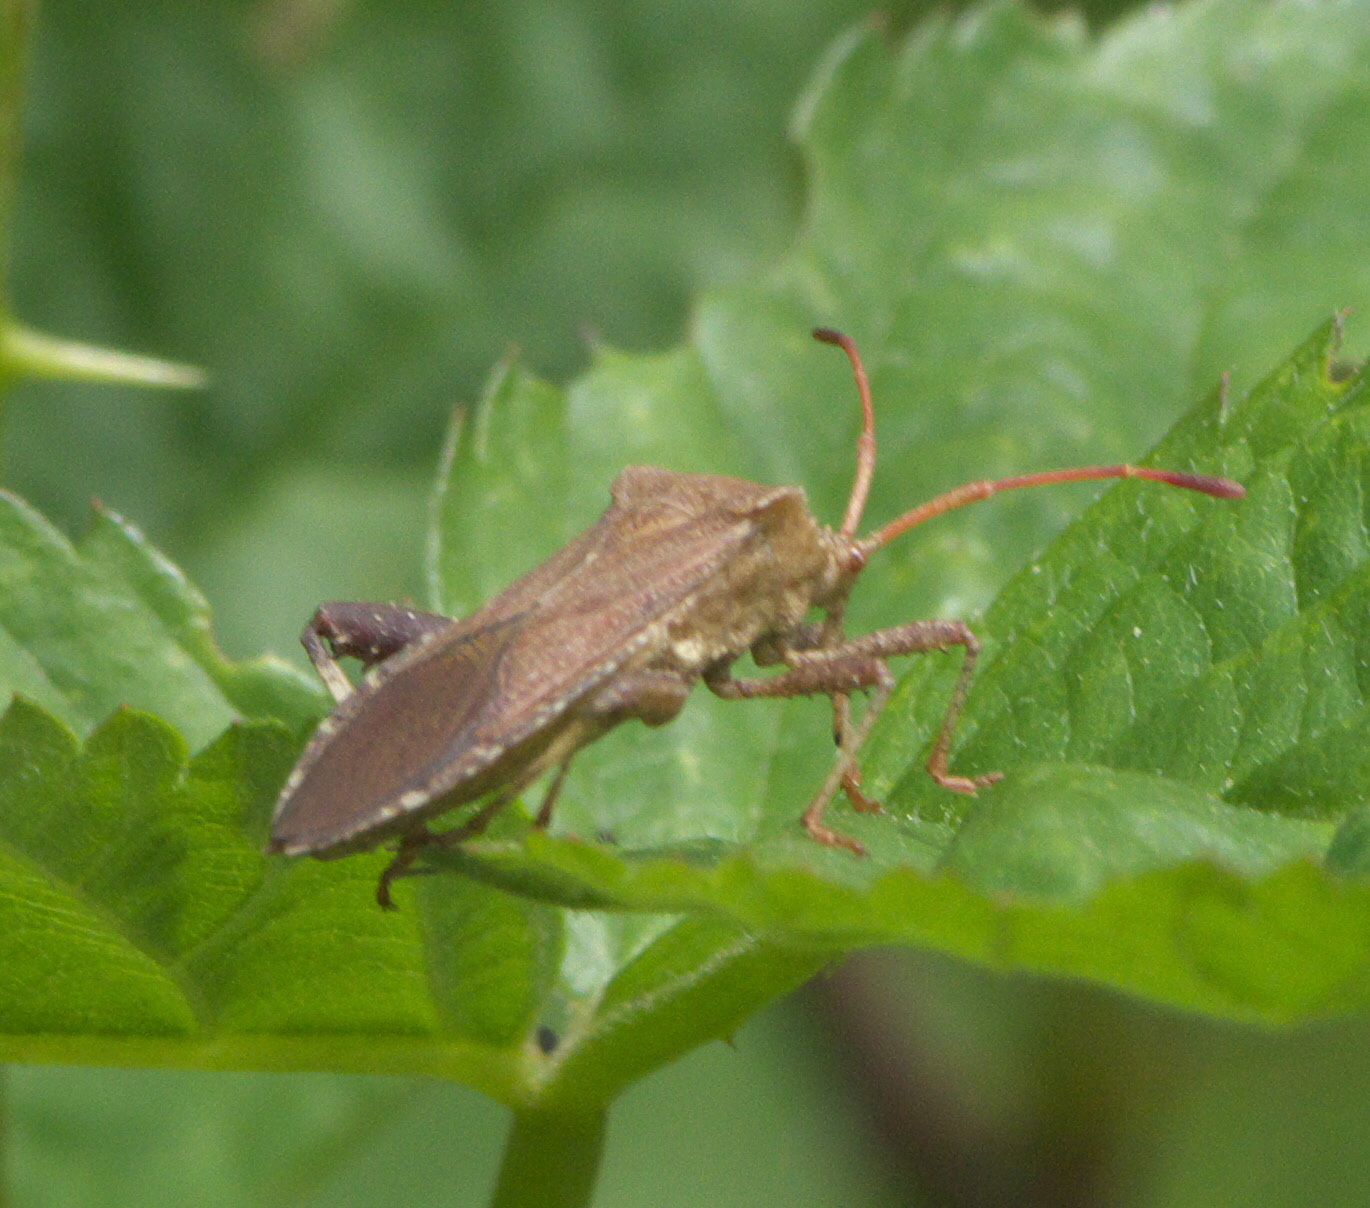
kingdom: Animalia
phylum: Arthropoda
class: Insecta
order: Hemiptera
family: Coreidae
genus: Euthochtha
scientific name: Euthochtha galeator
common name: Helmeted squash bug
